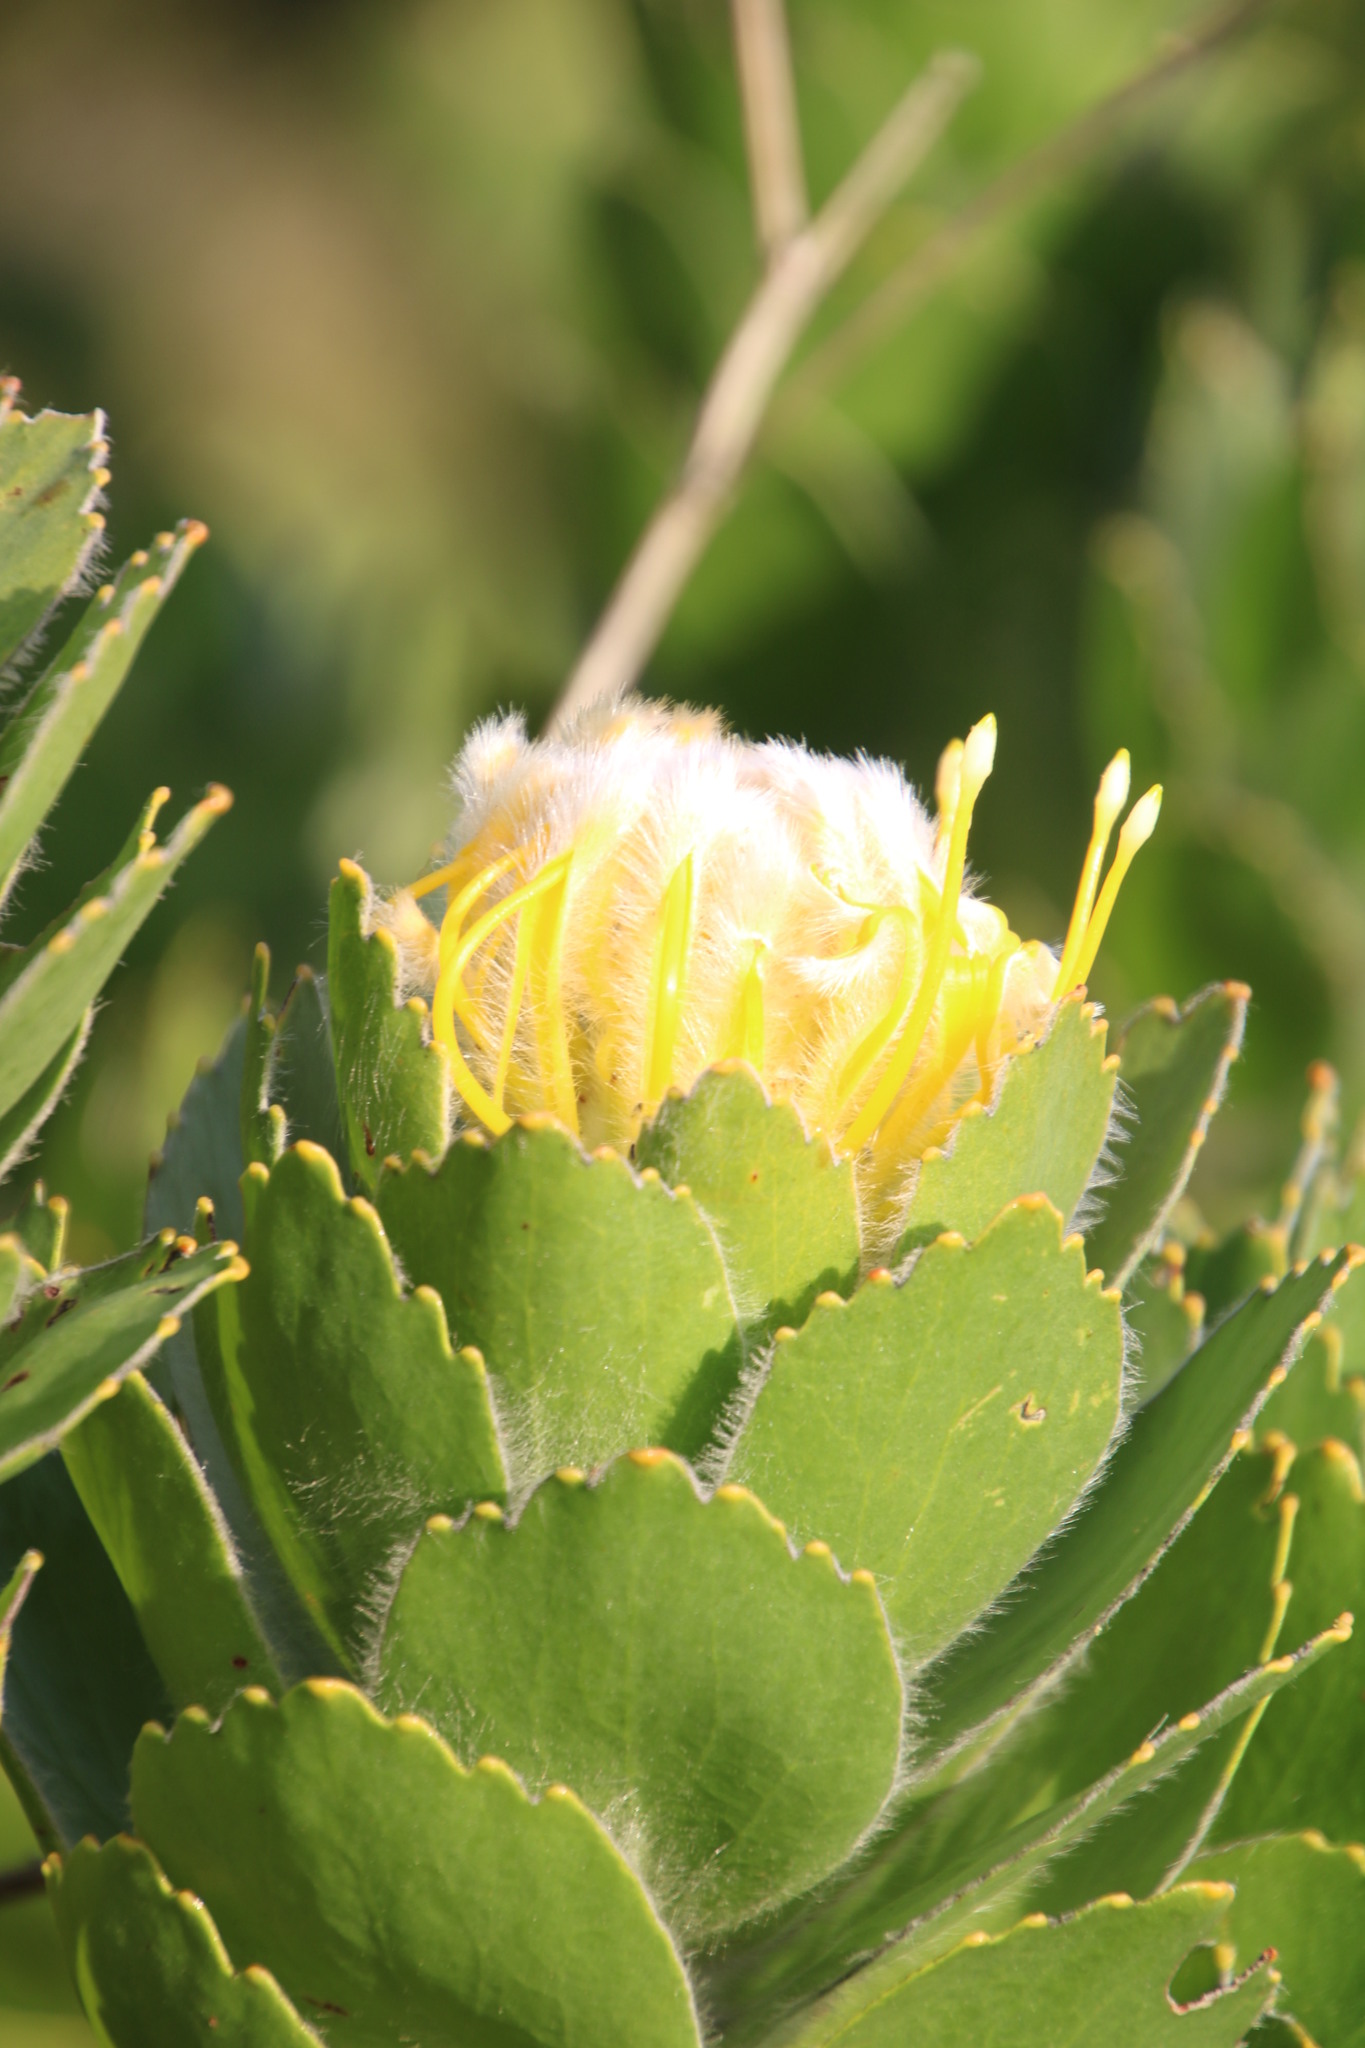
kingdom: Plantae
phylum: Tracheophyta
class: Magnoliopsida
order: Proteales
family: Proteaceae
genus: Leucospermum
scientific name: Leucospermum conocarpodendron
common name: Tree pincushion
